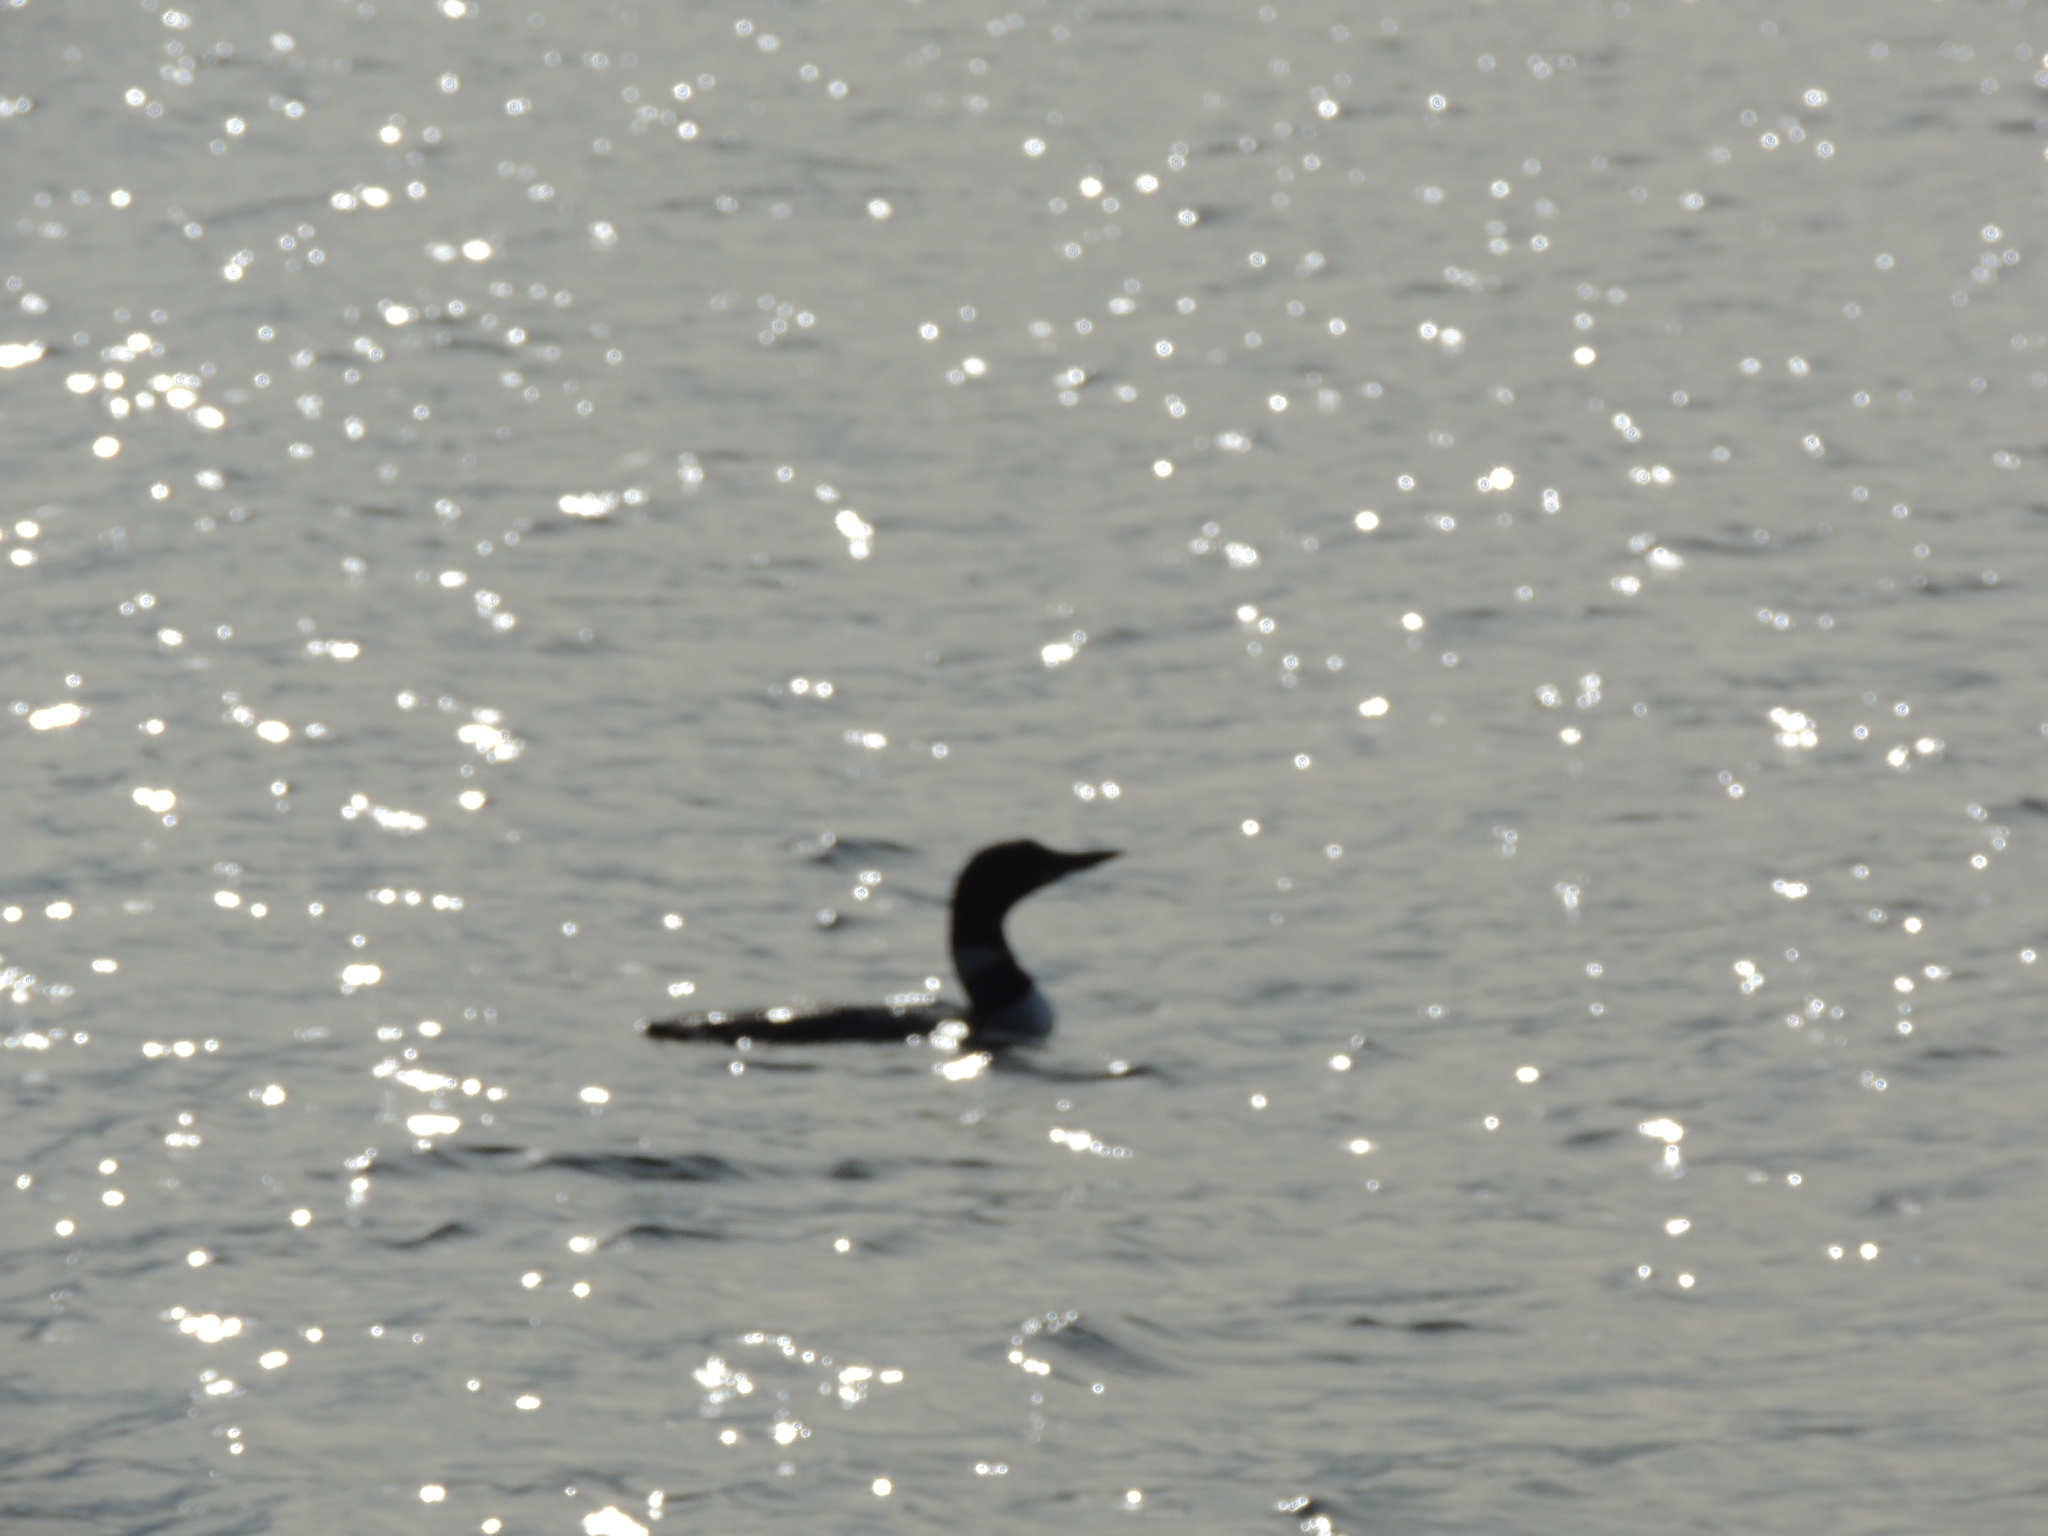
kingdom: Animalia
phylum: Chordata
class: Aves
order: Gaviiformes
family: Gaviidae
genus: Gavia
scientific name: Gavia immer
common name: Common loon
